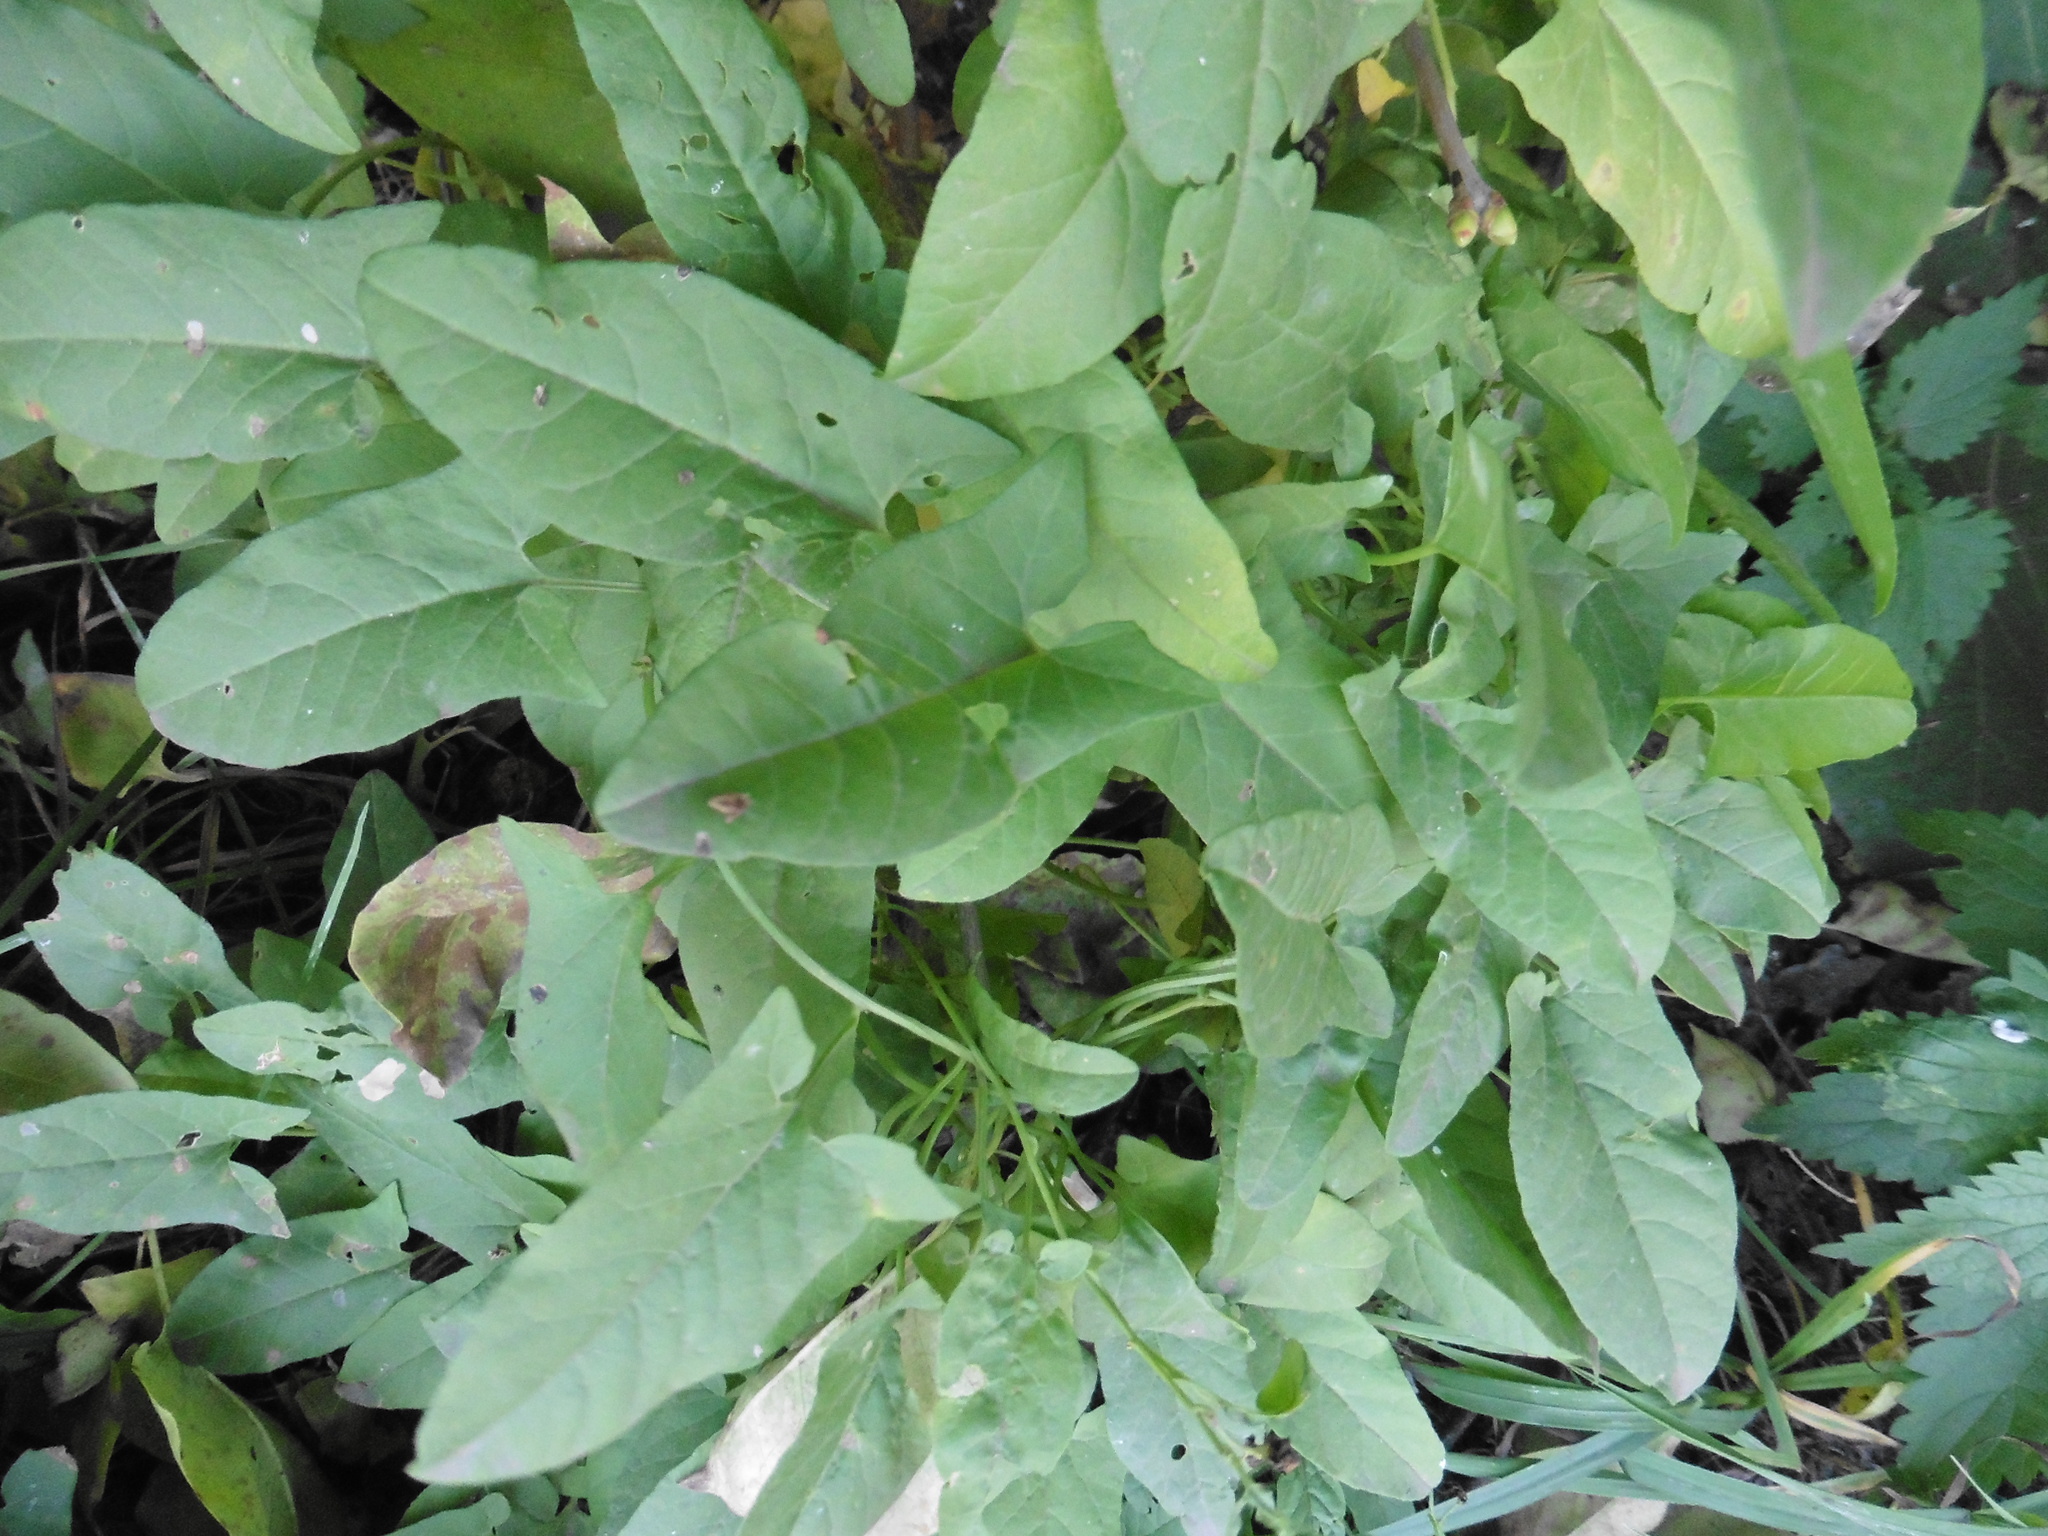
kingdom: Plantae
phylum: Tracheophyta
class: Magnoliopsida
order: Solanales
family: Convolvulaceae
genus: Convolvulus
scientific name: Convolvulus arvensis
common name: Field bindweed
